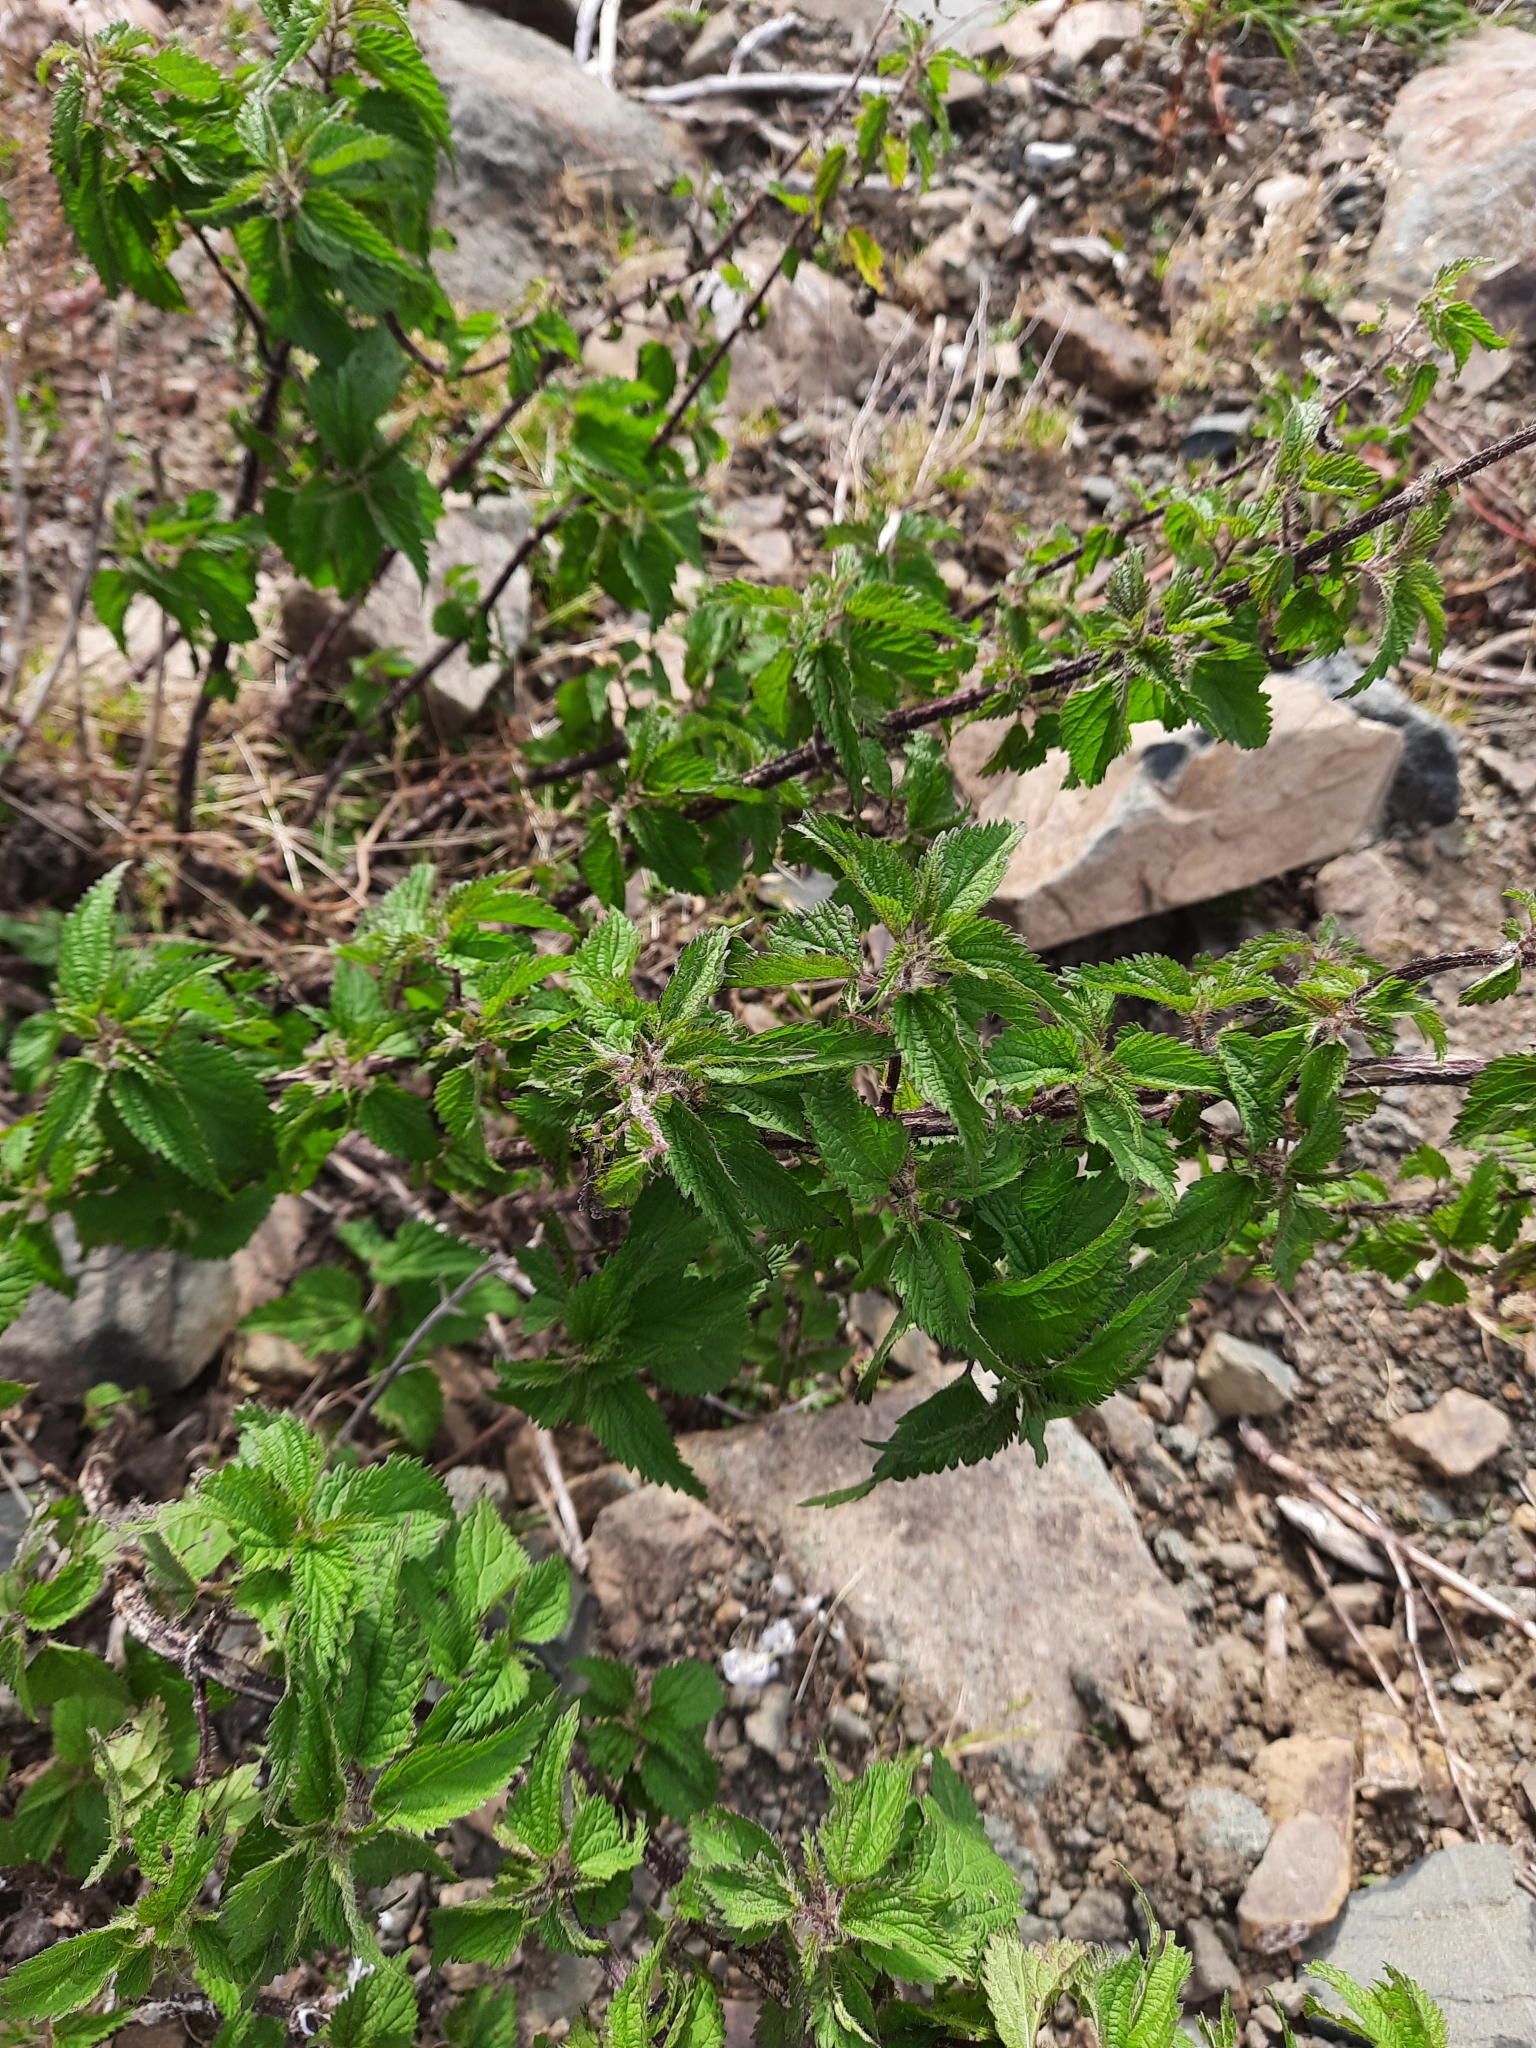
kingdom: Plantae
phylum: Tracheophyta
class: Magnoliopsida
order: Rosales
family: Urticaceae
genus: Urtica
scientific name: Urtica dioica
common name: Common nettle
